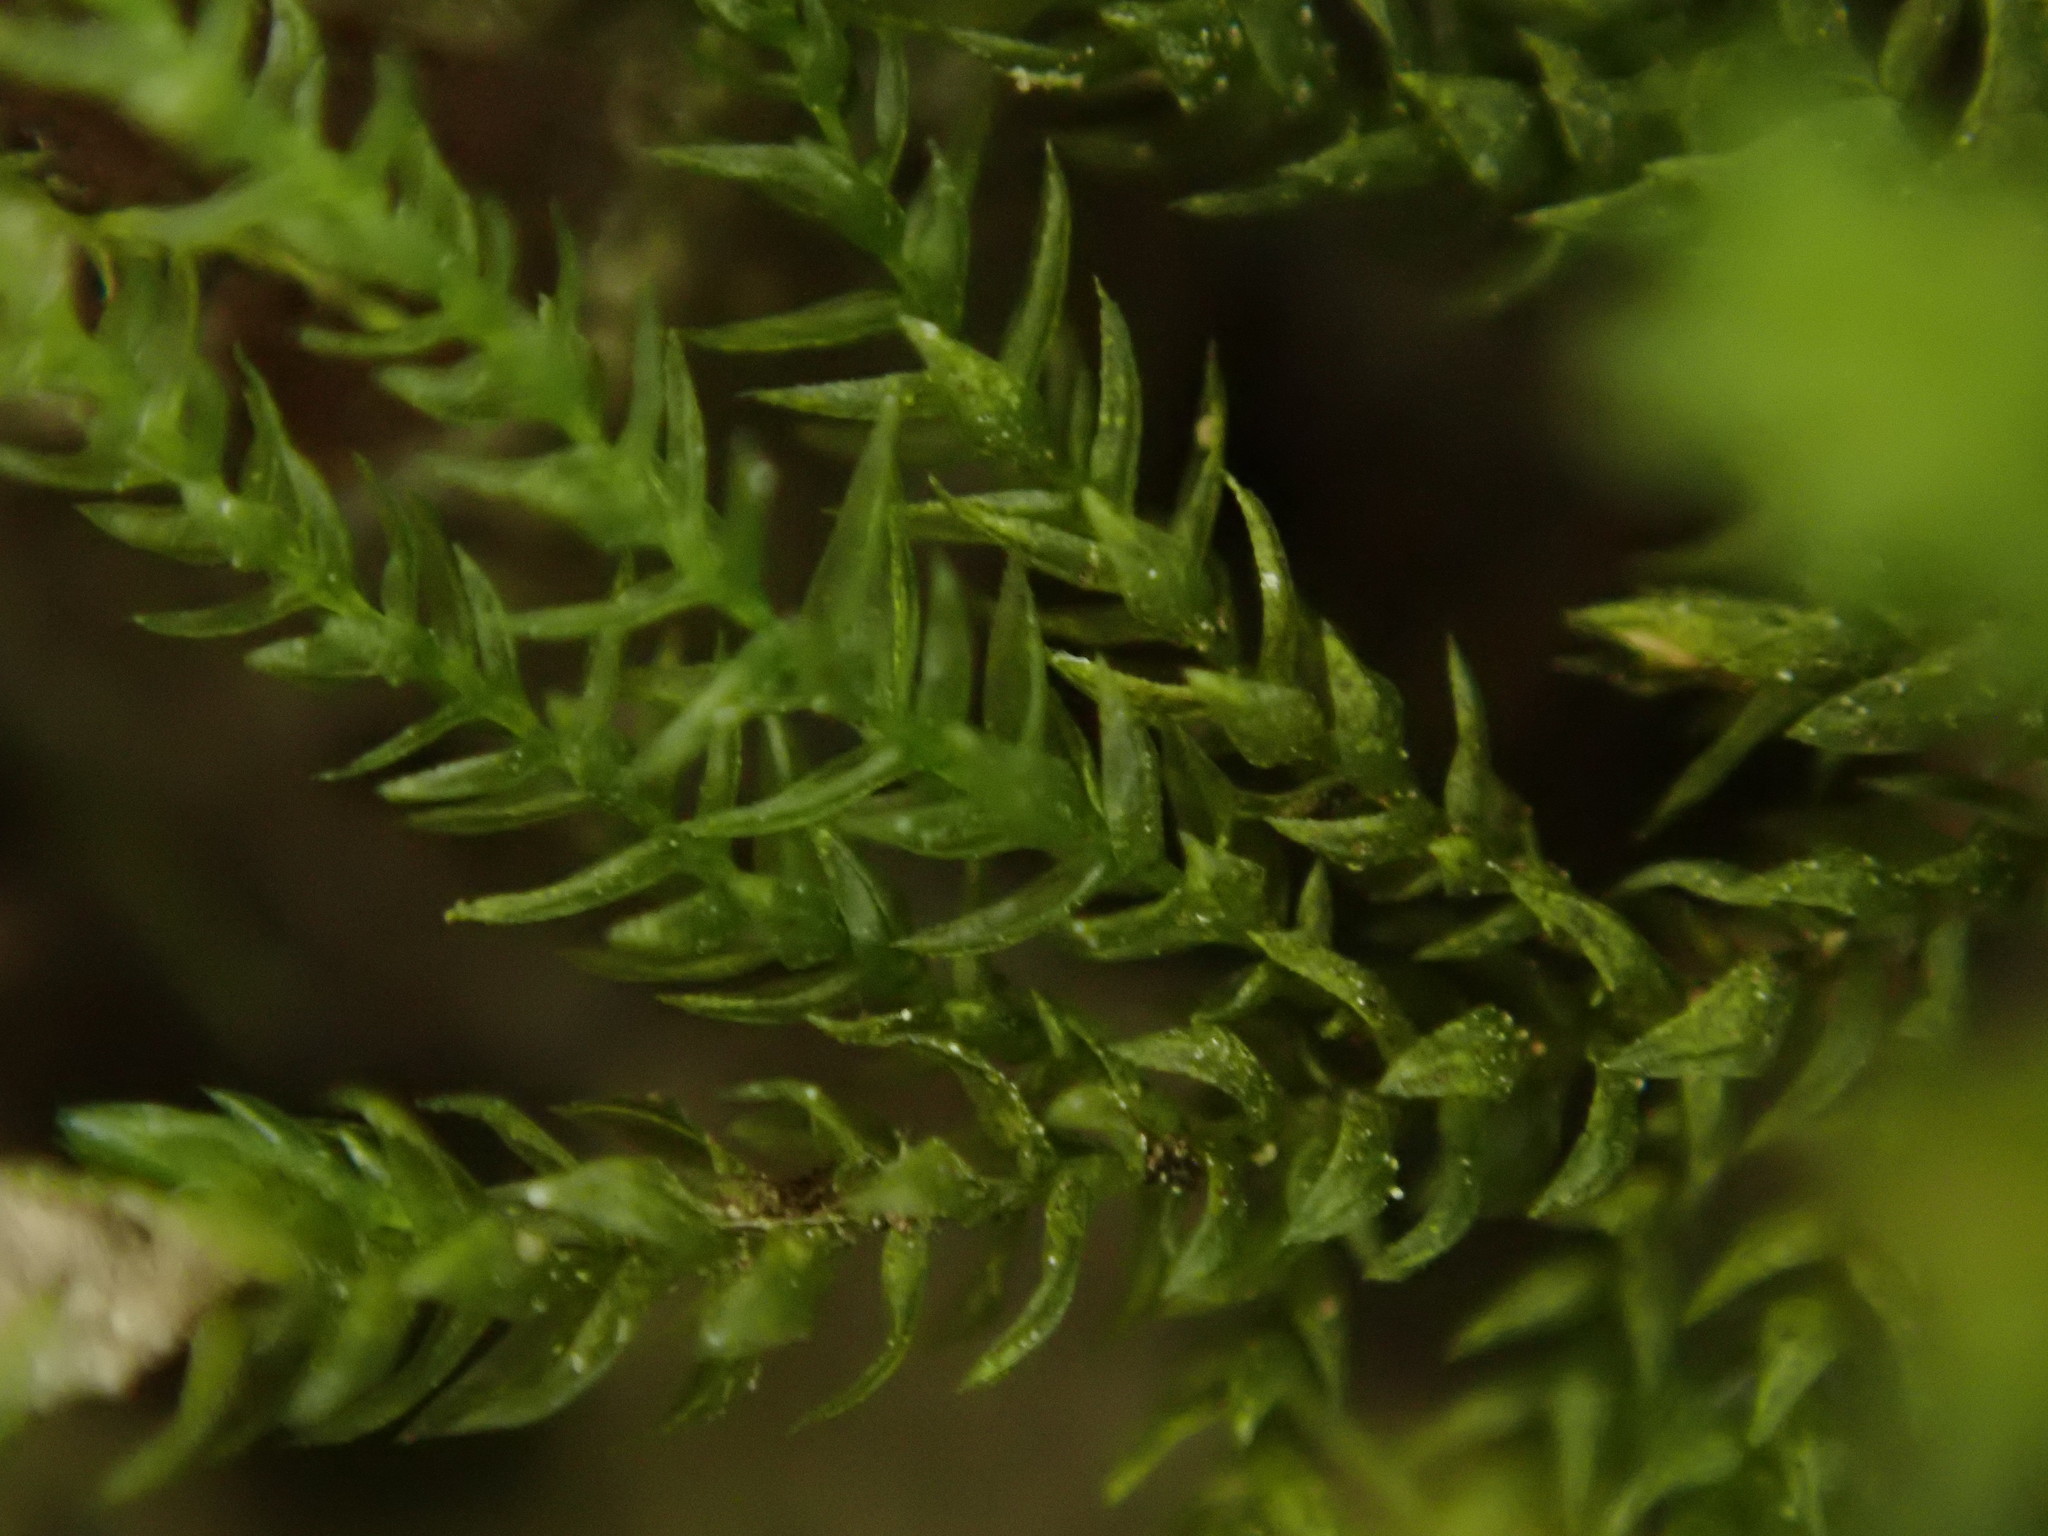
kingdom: Plantae
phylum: Bryophyta
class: Bryopsida
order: Hypnales
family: Neckeraceae
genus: Thamnobryum
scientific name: Thamnobryum alopecurum
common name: Fox-tail feather-moss
